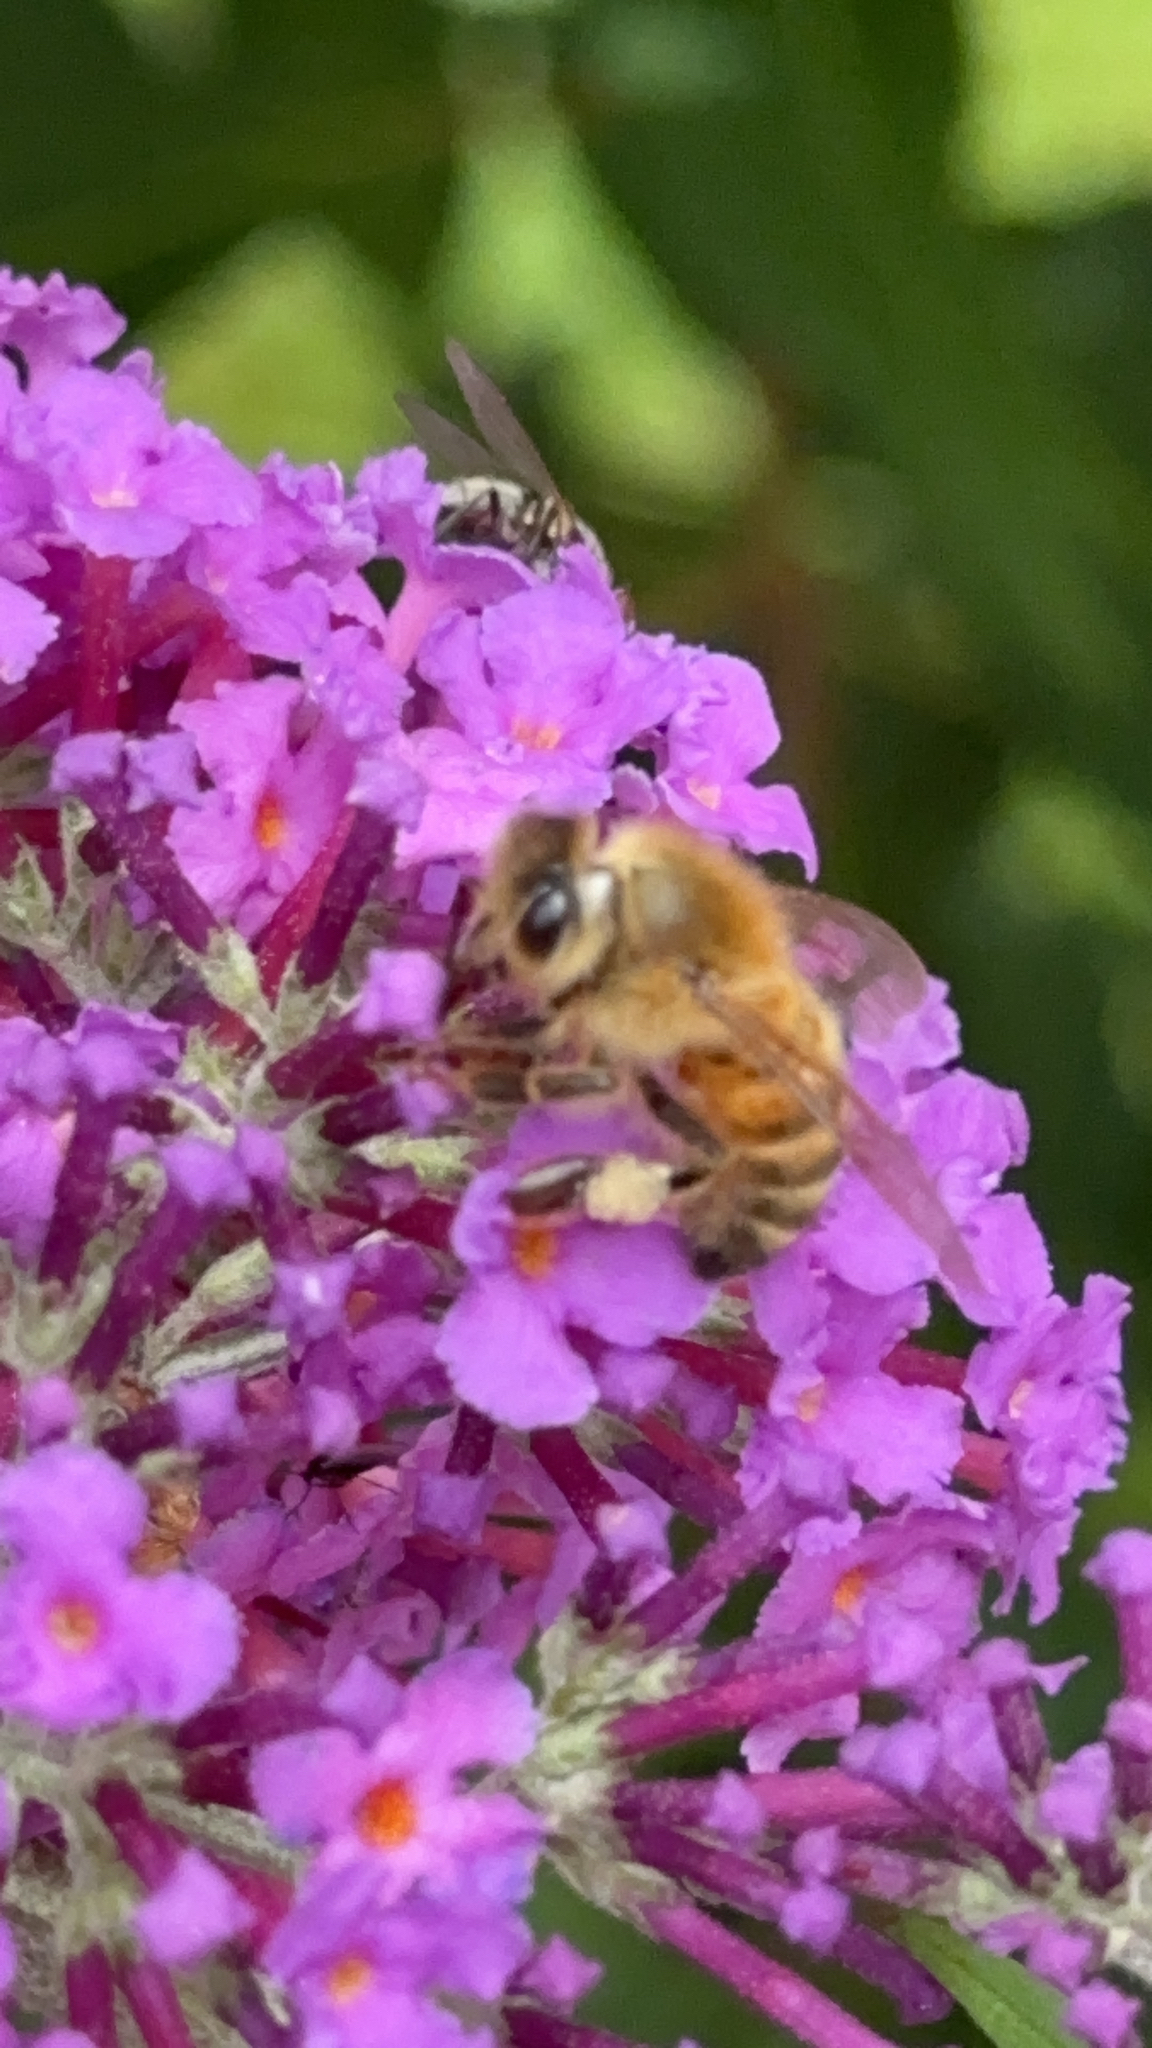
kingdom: Animalia
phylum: Arthropoda
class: Insecta
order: Hymenoptera
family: Apidae
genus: Apis
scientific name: Apis mellifera
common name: Honey bee
